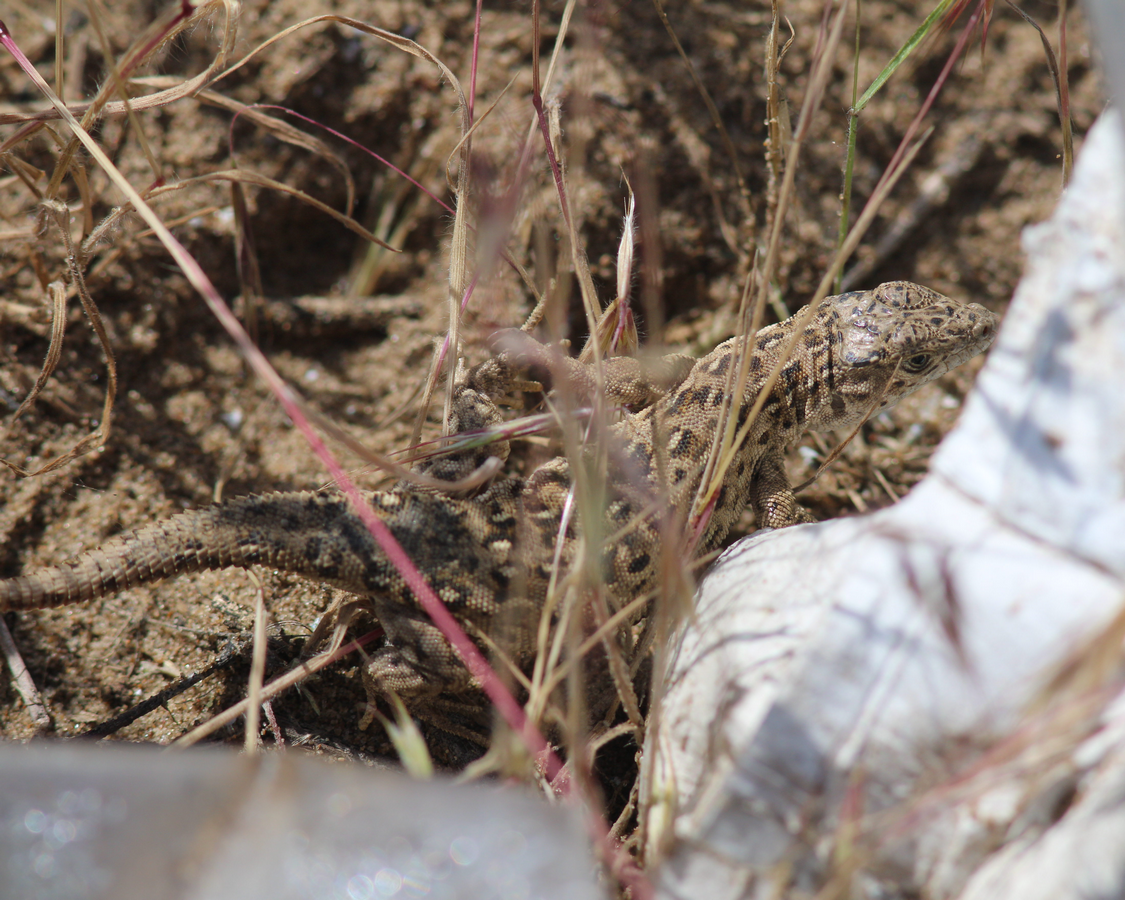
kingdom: Animalia
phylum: Chordata
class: Squamata
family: Lacertidae
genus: Eremias
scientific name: Eremias arguta
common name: Racerunner
